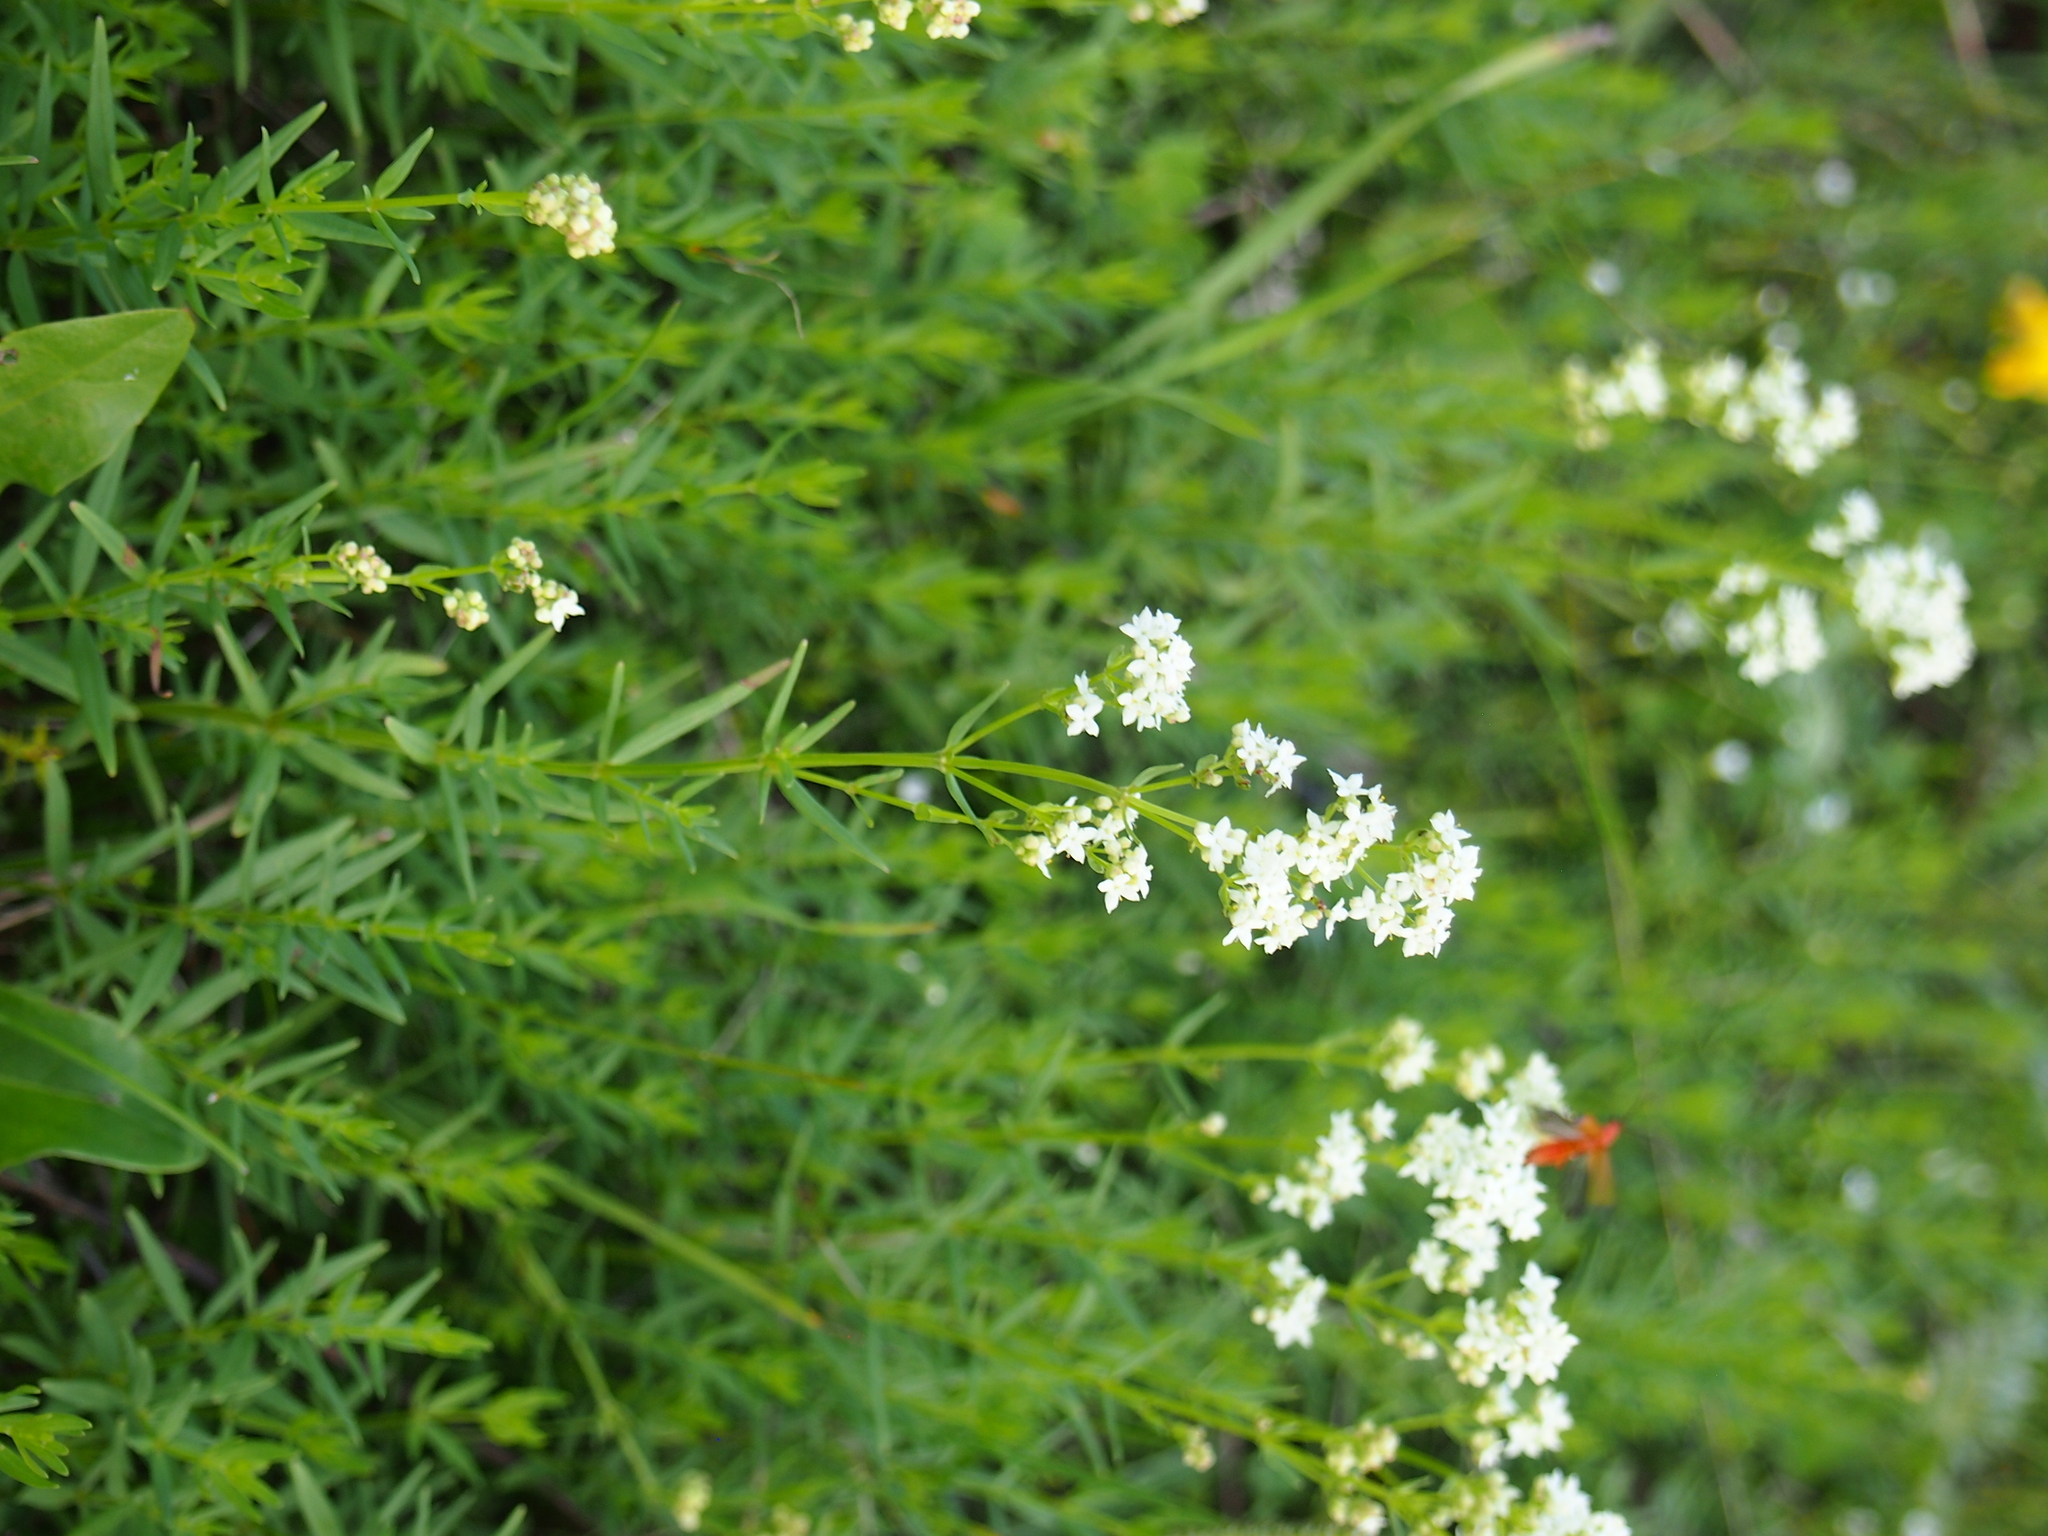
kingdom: Plantae
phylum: Tracheophyta
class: Magnoliopsida
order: Gentianales
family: Rubiaceae
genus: Galium
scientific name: Galium boreale
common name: Northern bedstraw
